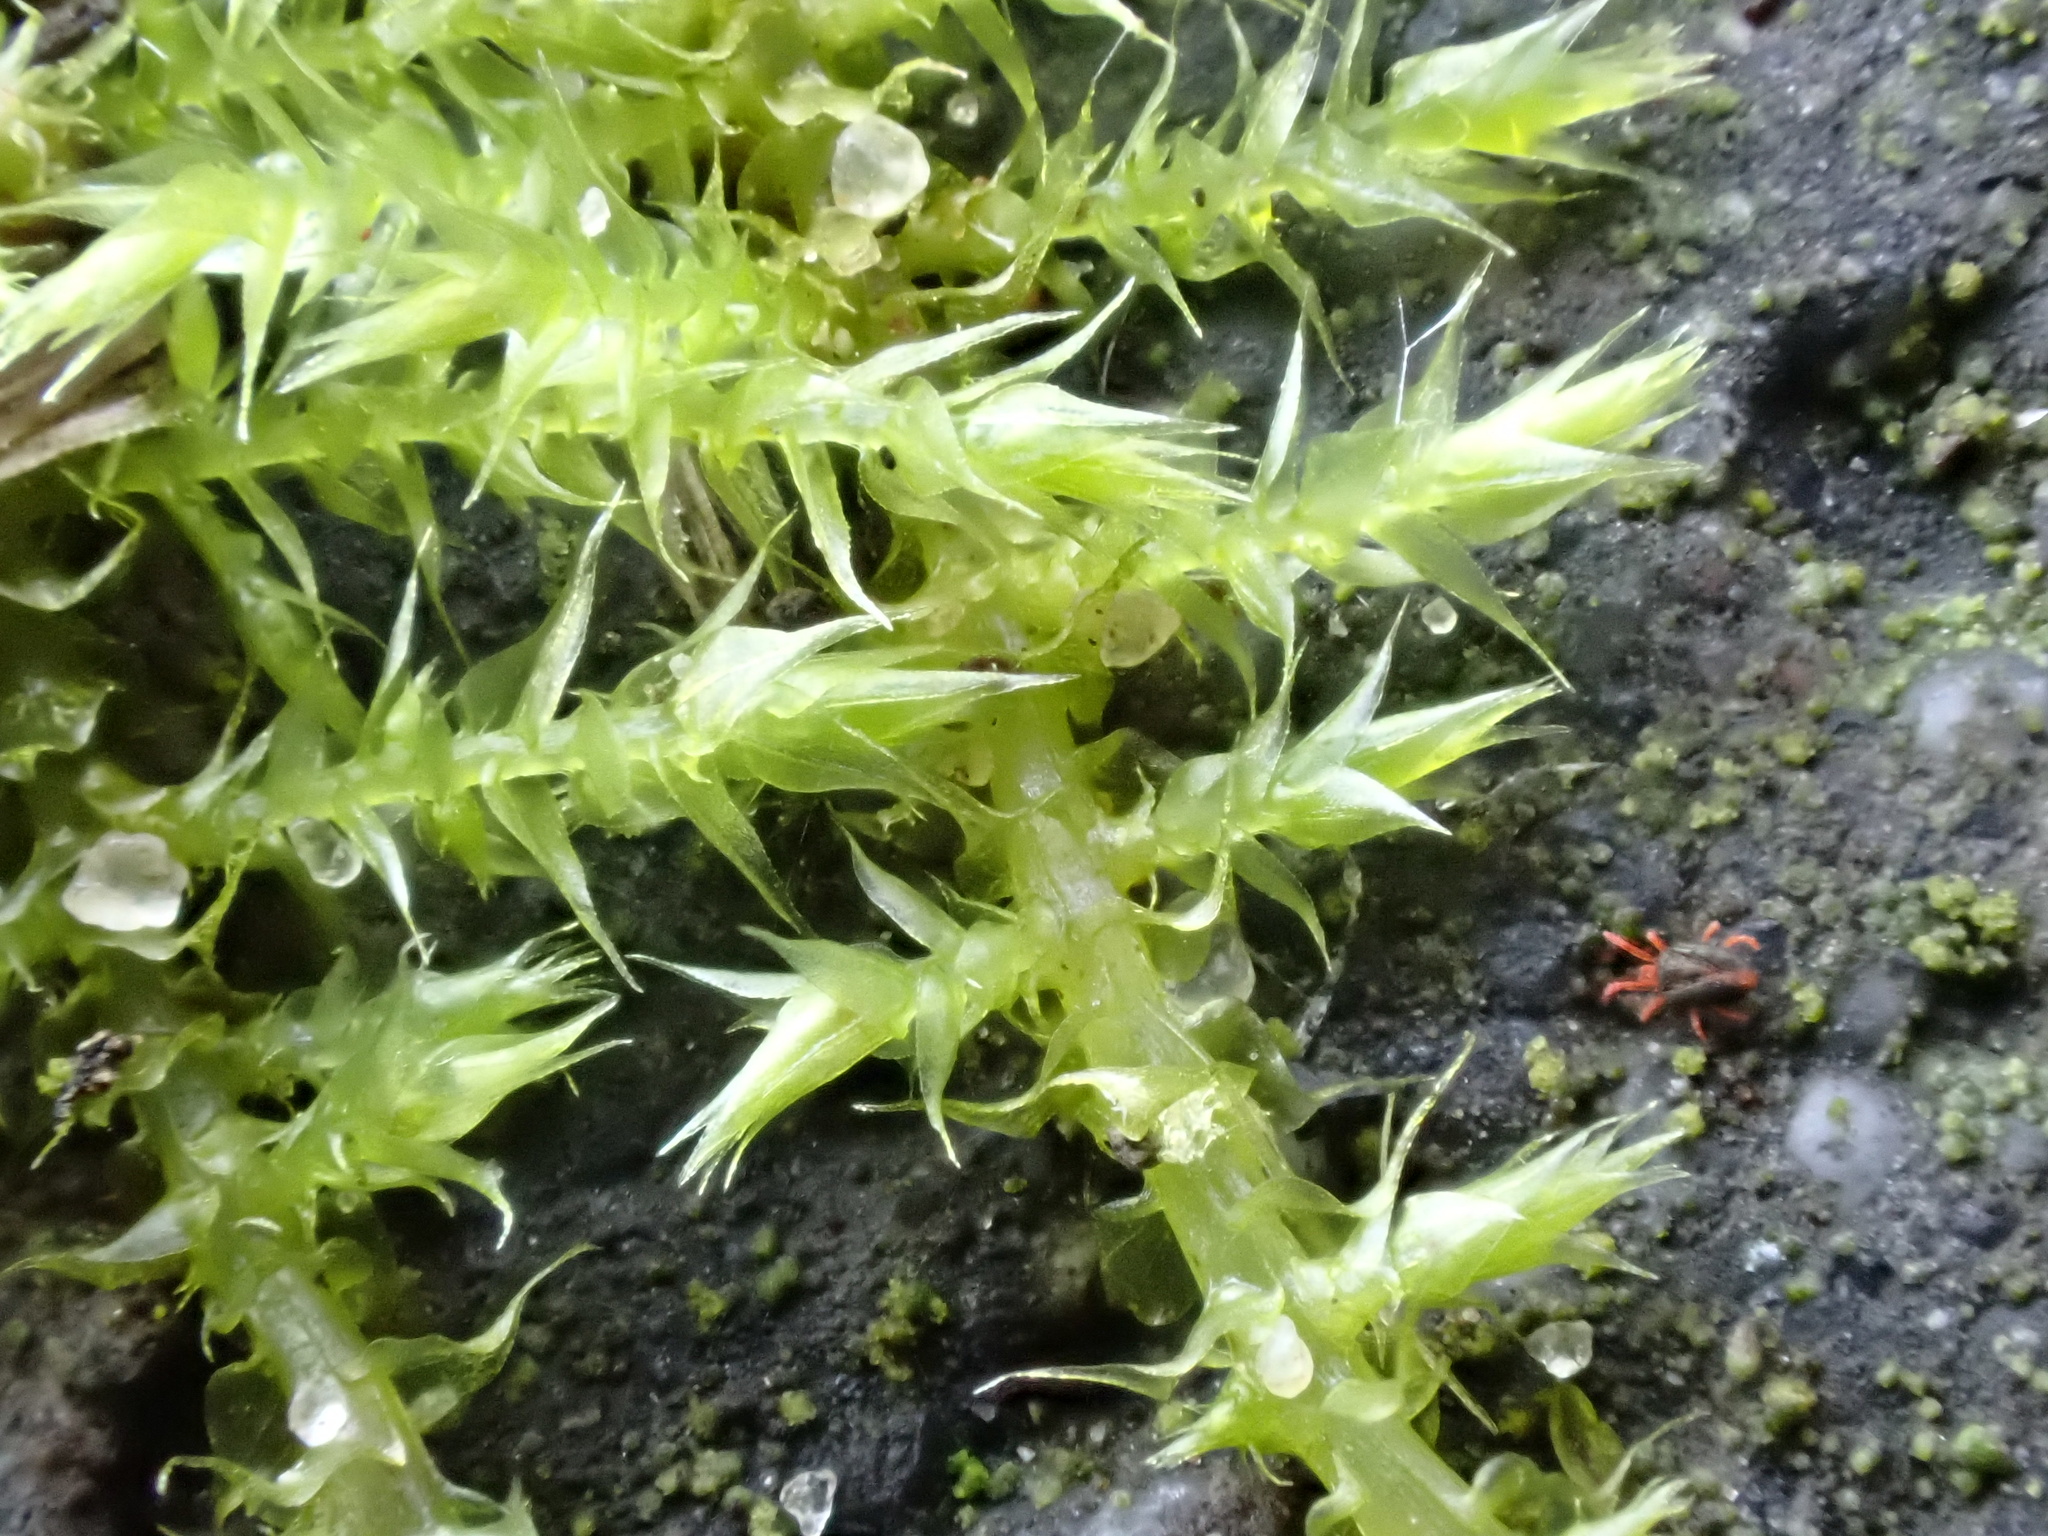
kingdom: Plantae
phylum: Bryophyta
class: Bryopsida
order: Hypnales
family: Brachytheciaceae
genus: Kindbergia
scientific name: Kindbergia praelonga
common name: Slender beaked moss
